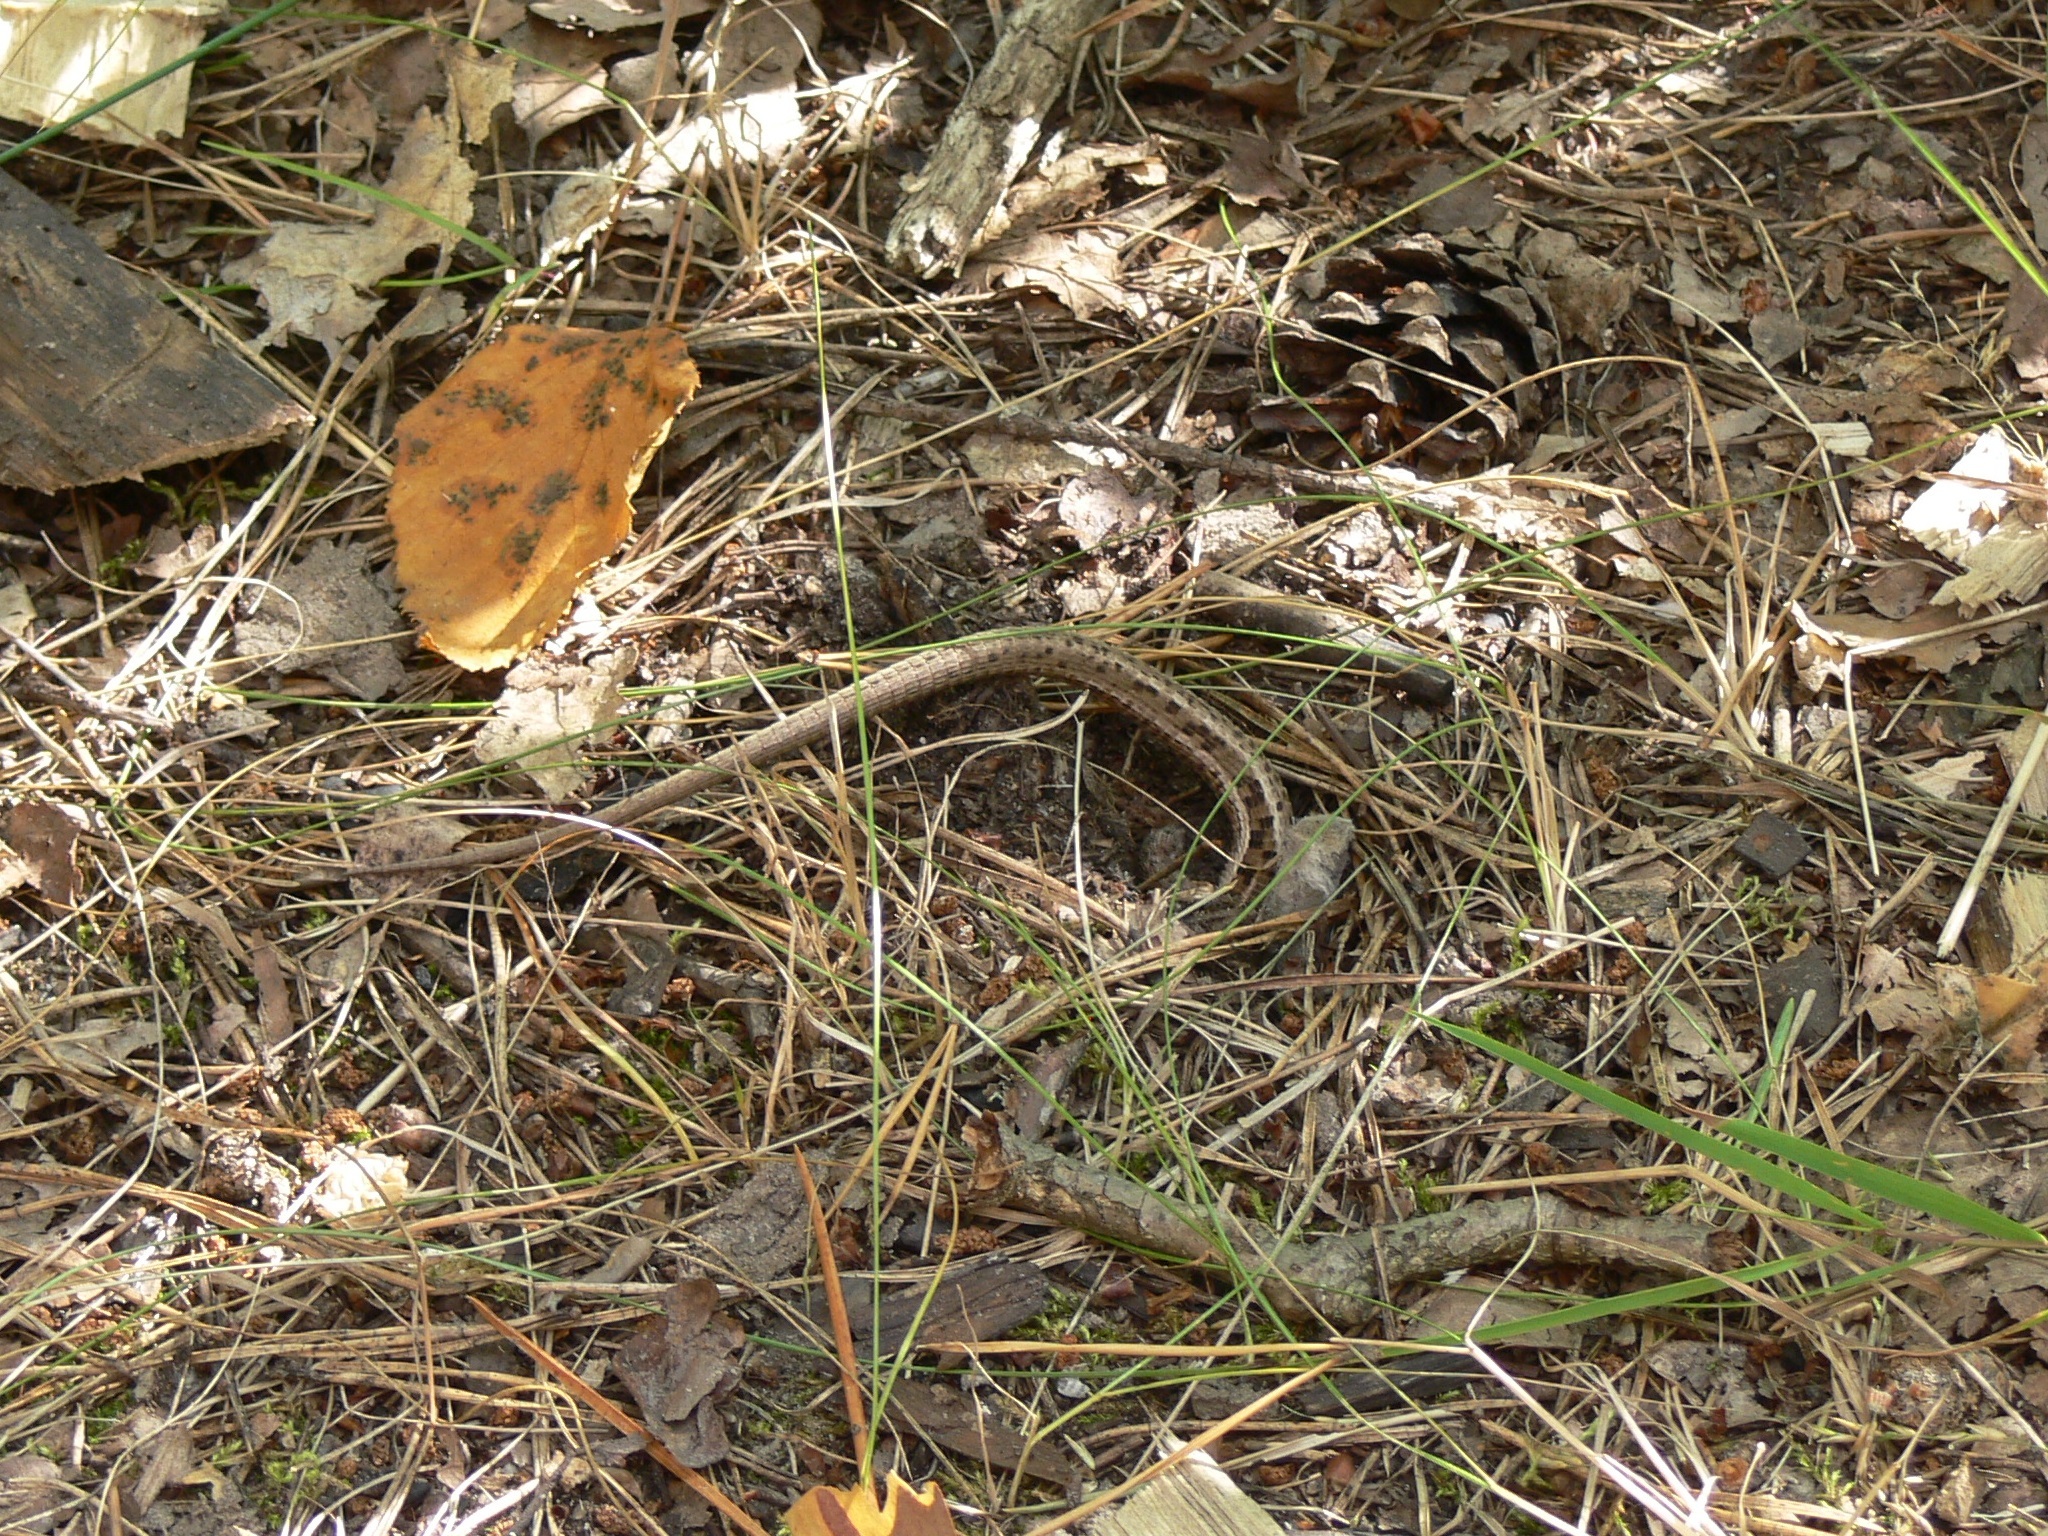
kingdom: Animalia
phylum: Chordata
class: Squamata
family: Lacertidae
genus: Lacerta
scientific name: Lacerta agilis
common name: Sand lizard
